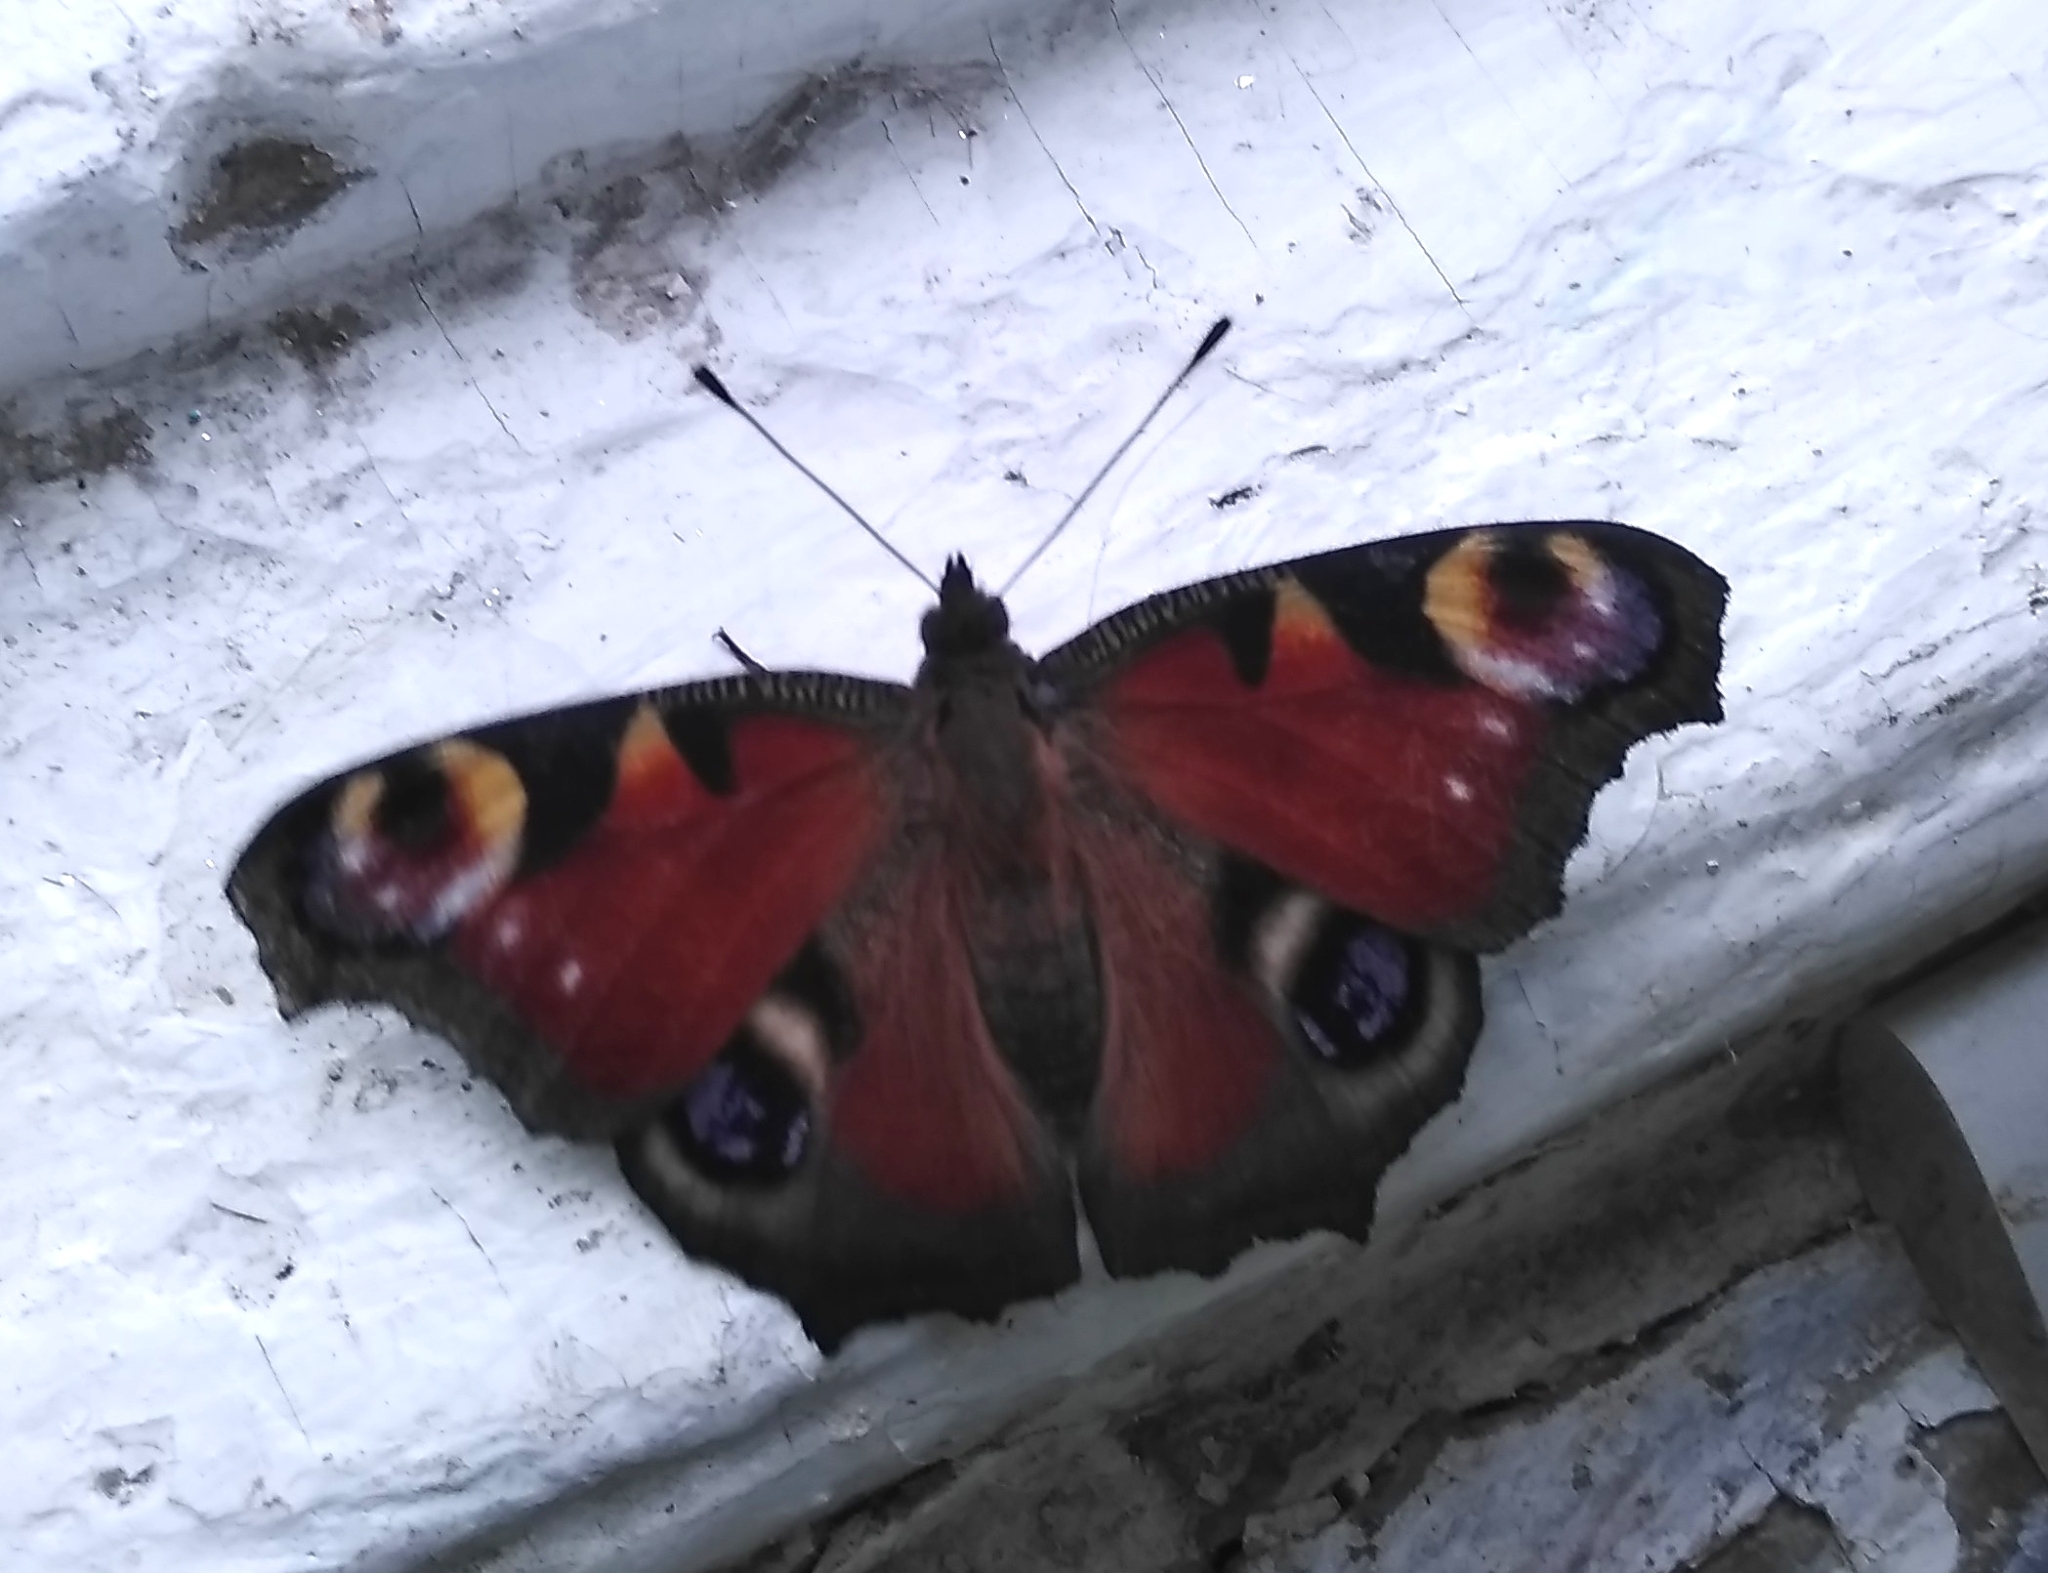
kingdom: Animalia
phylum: Arthropoda
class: Insecta
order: Lepidoptera
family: Nymphalidae
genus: Aglais
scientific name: Aglais io
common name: Peacock
